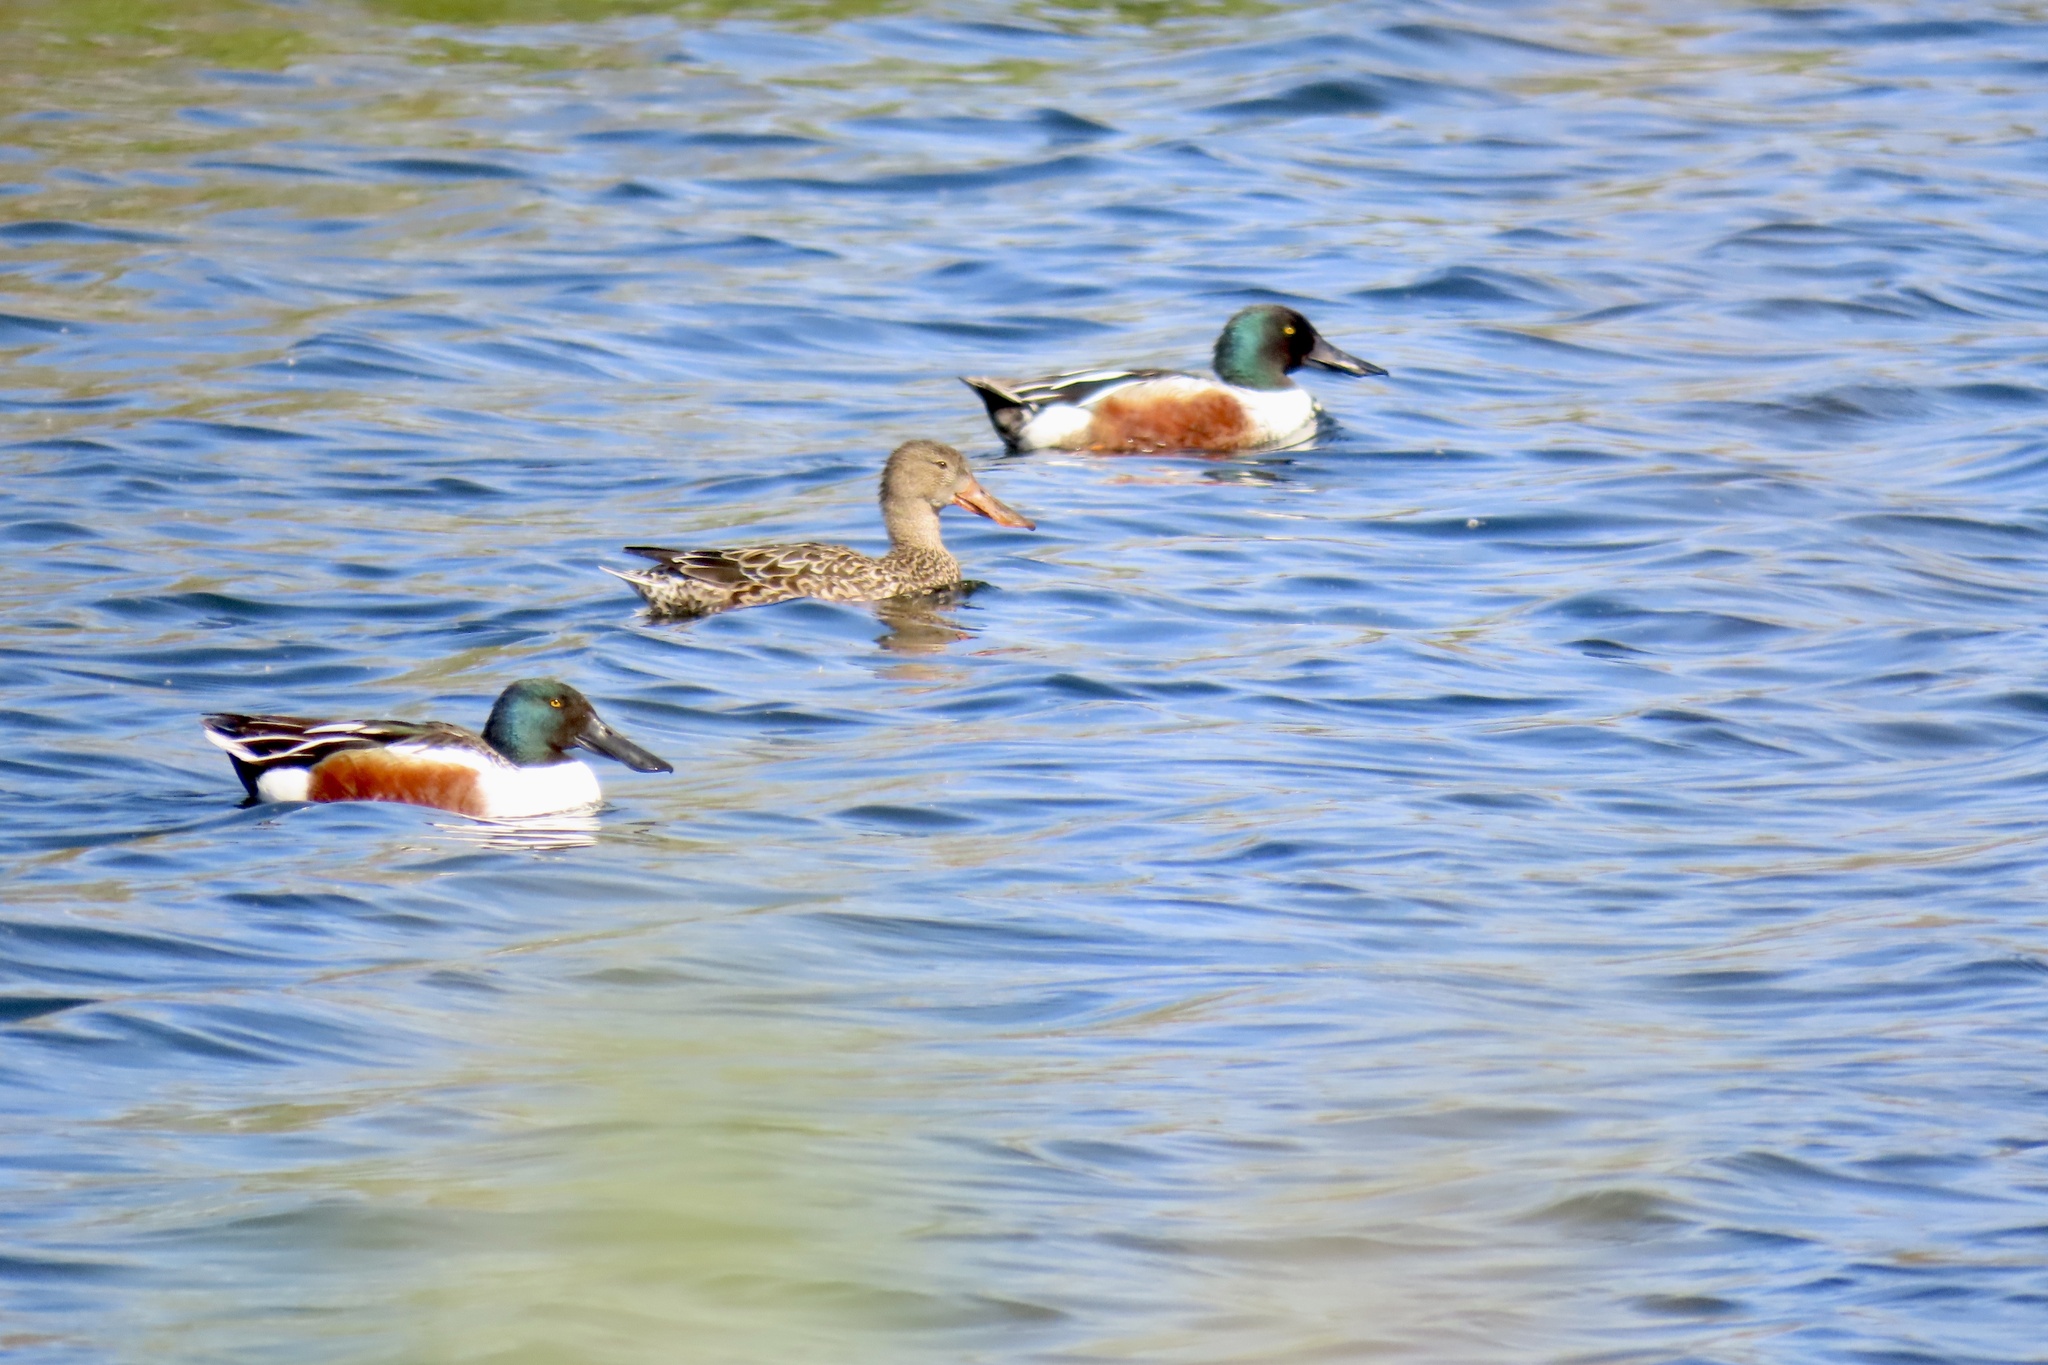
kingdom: Animalia
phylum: Chordata
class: Aves
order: Anseriformes
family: Anatidae
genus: Spatula
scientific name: Spatula clypeata
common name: Northern shoveler
